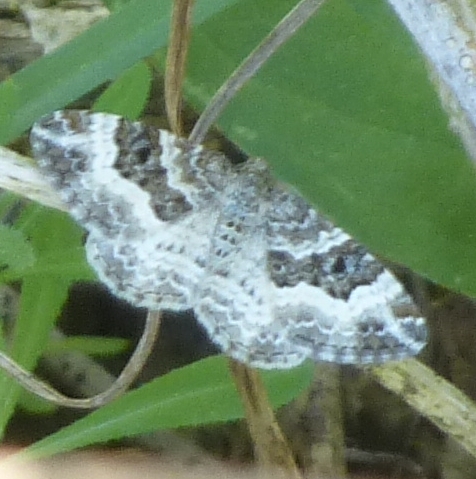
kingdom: Animalia
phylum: Arthropoda
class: Insecta
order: Lepidoptera
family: Geometridae
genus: Epirrhoe
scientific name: Epirrhoe alternata
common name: Common carpet
